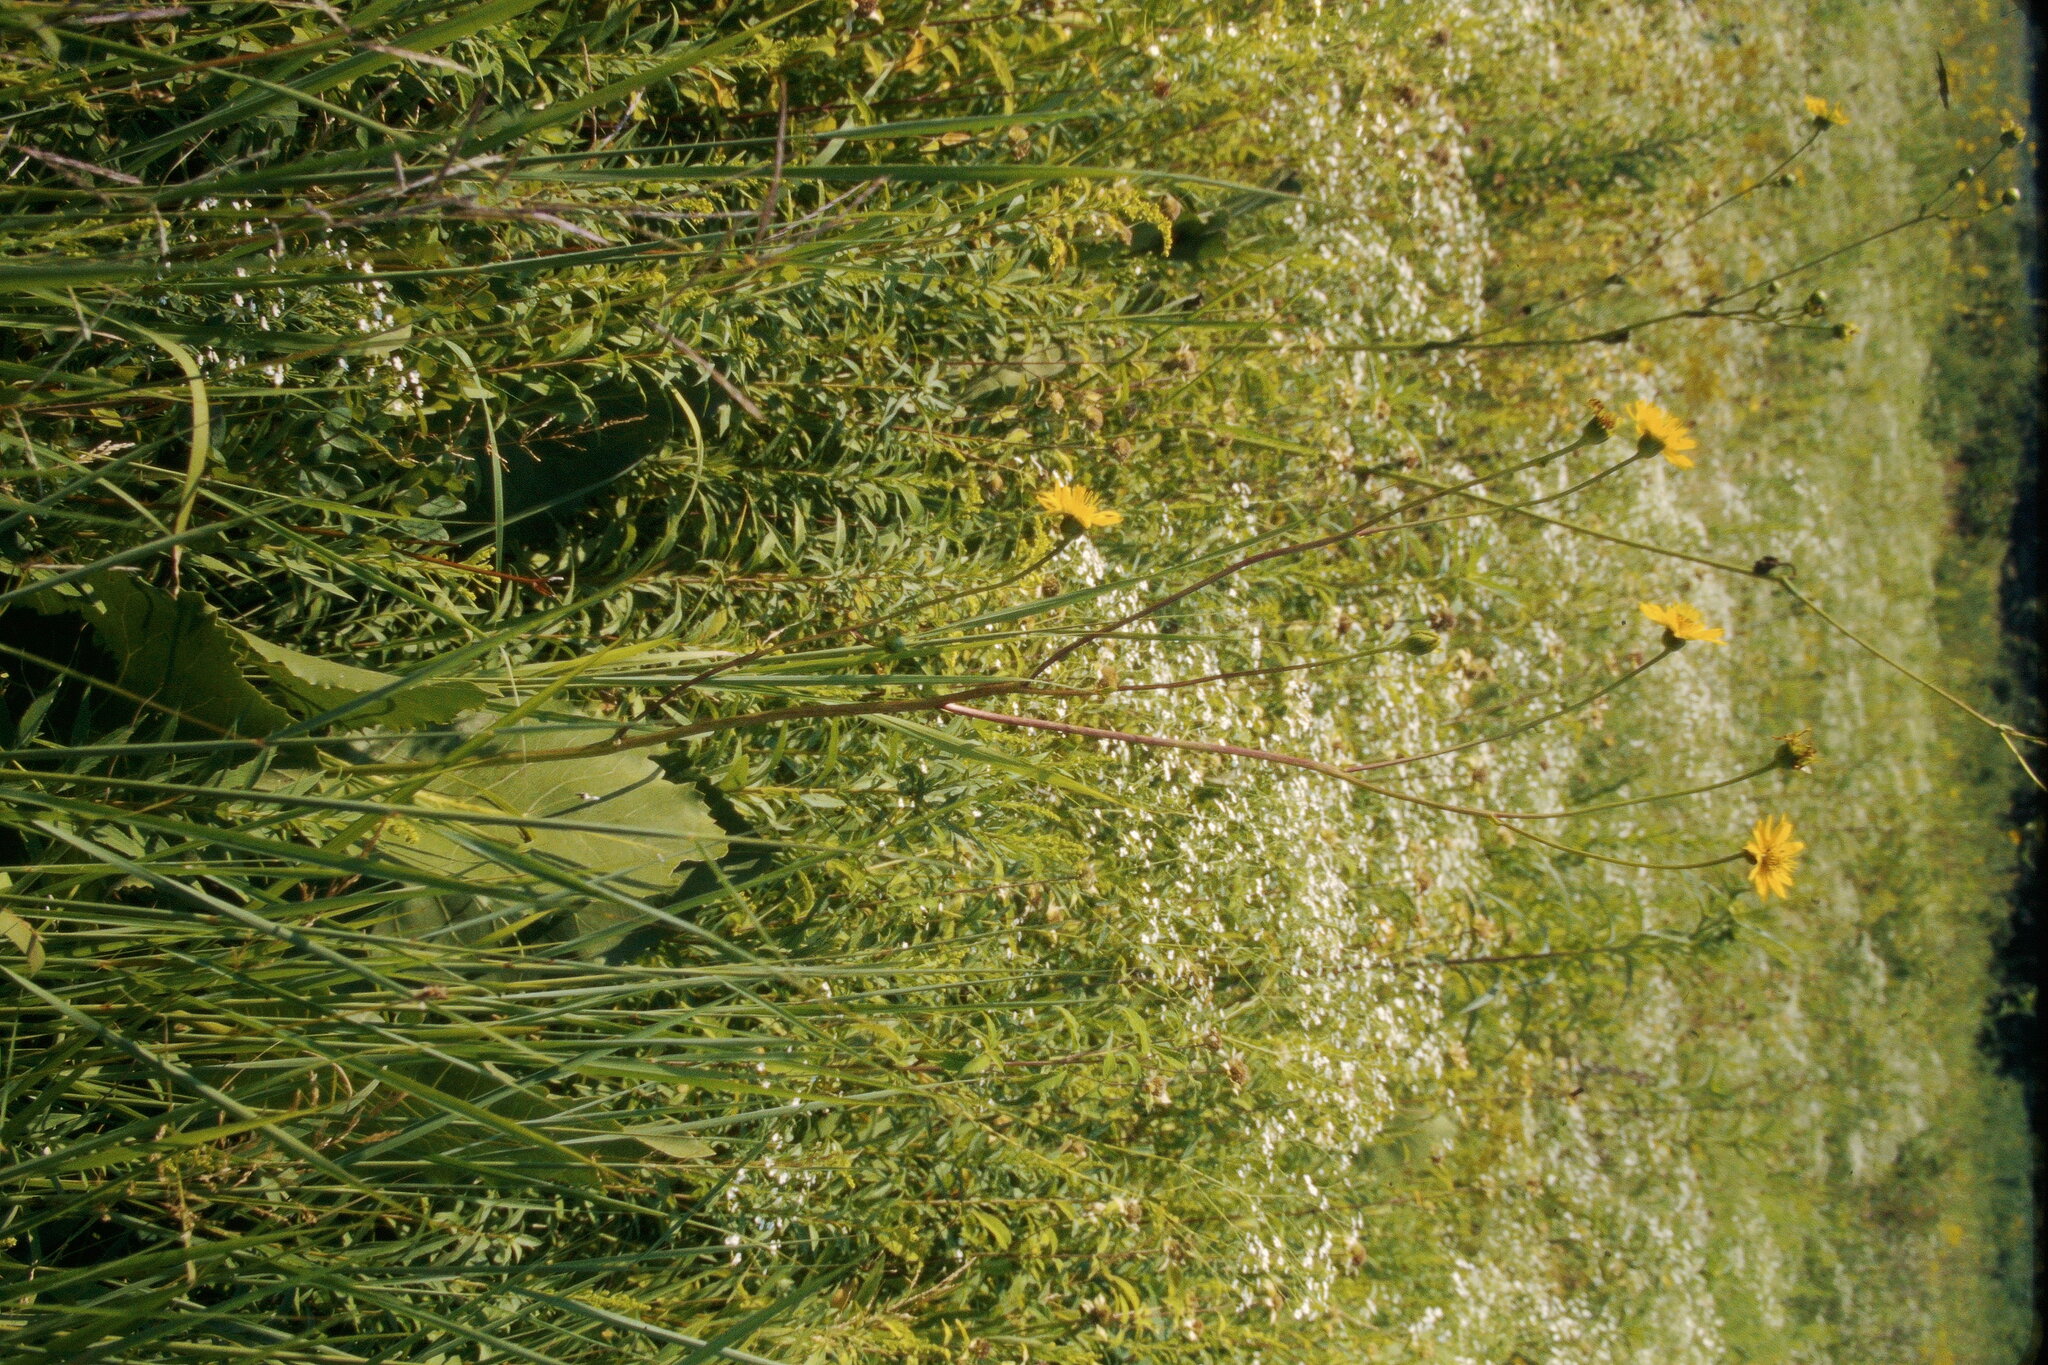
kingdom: Plantae
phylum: Tracheophyta
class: Magnoliopsida
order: Asterales
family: Asteraceae
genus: Silphium
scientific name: Silphium terebinthinaceum
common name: Basal-leaf rosinweed
